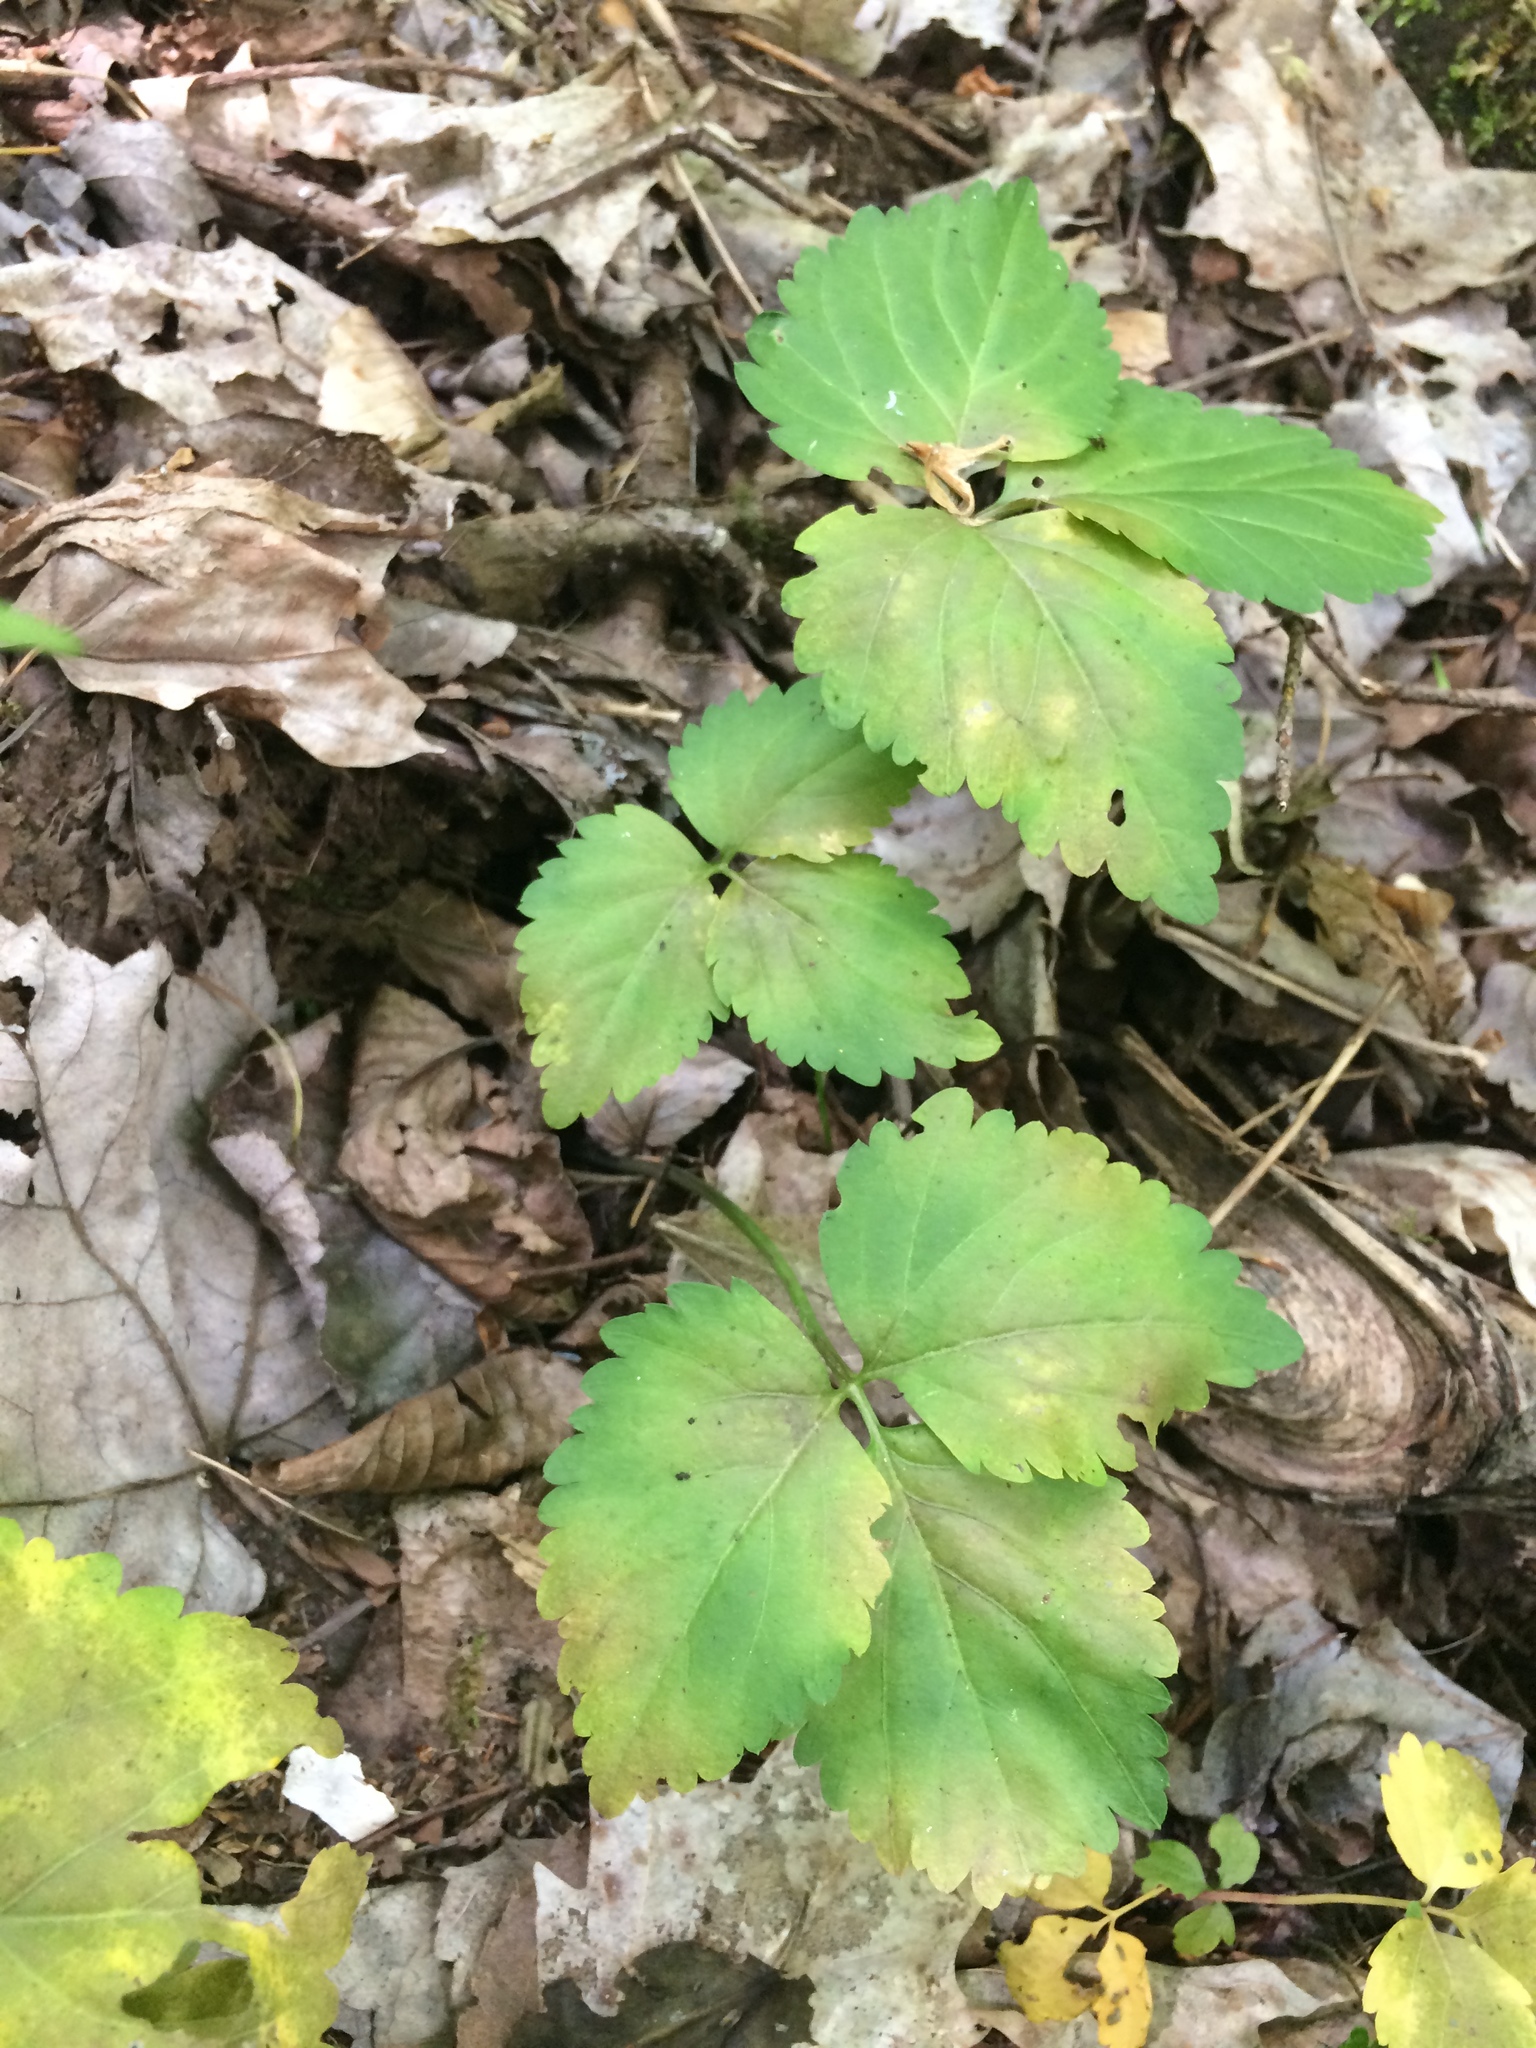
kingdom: Plantae
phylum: Tracheophyta
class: Magnoliopsida
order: Brassicales
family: Brassicaceae
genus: Cardamine
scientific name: Cardamine diphylla
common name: Broad-leaved toothwort
